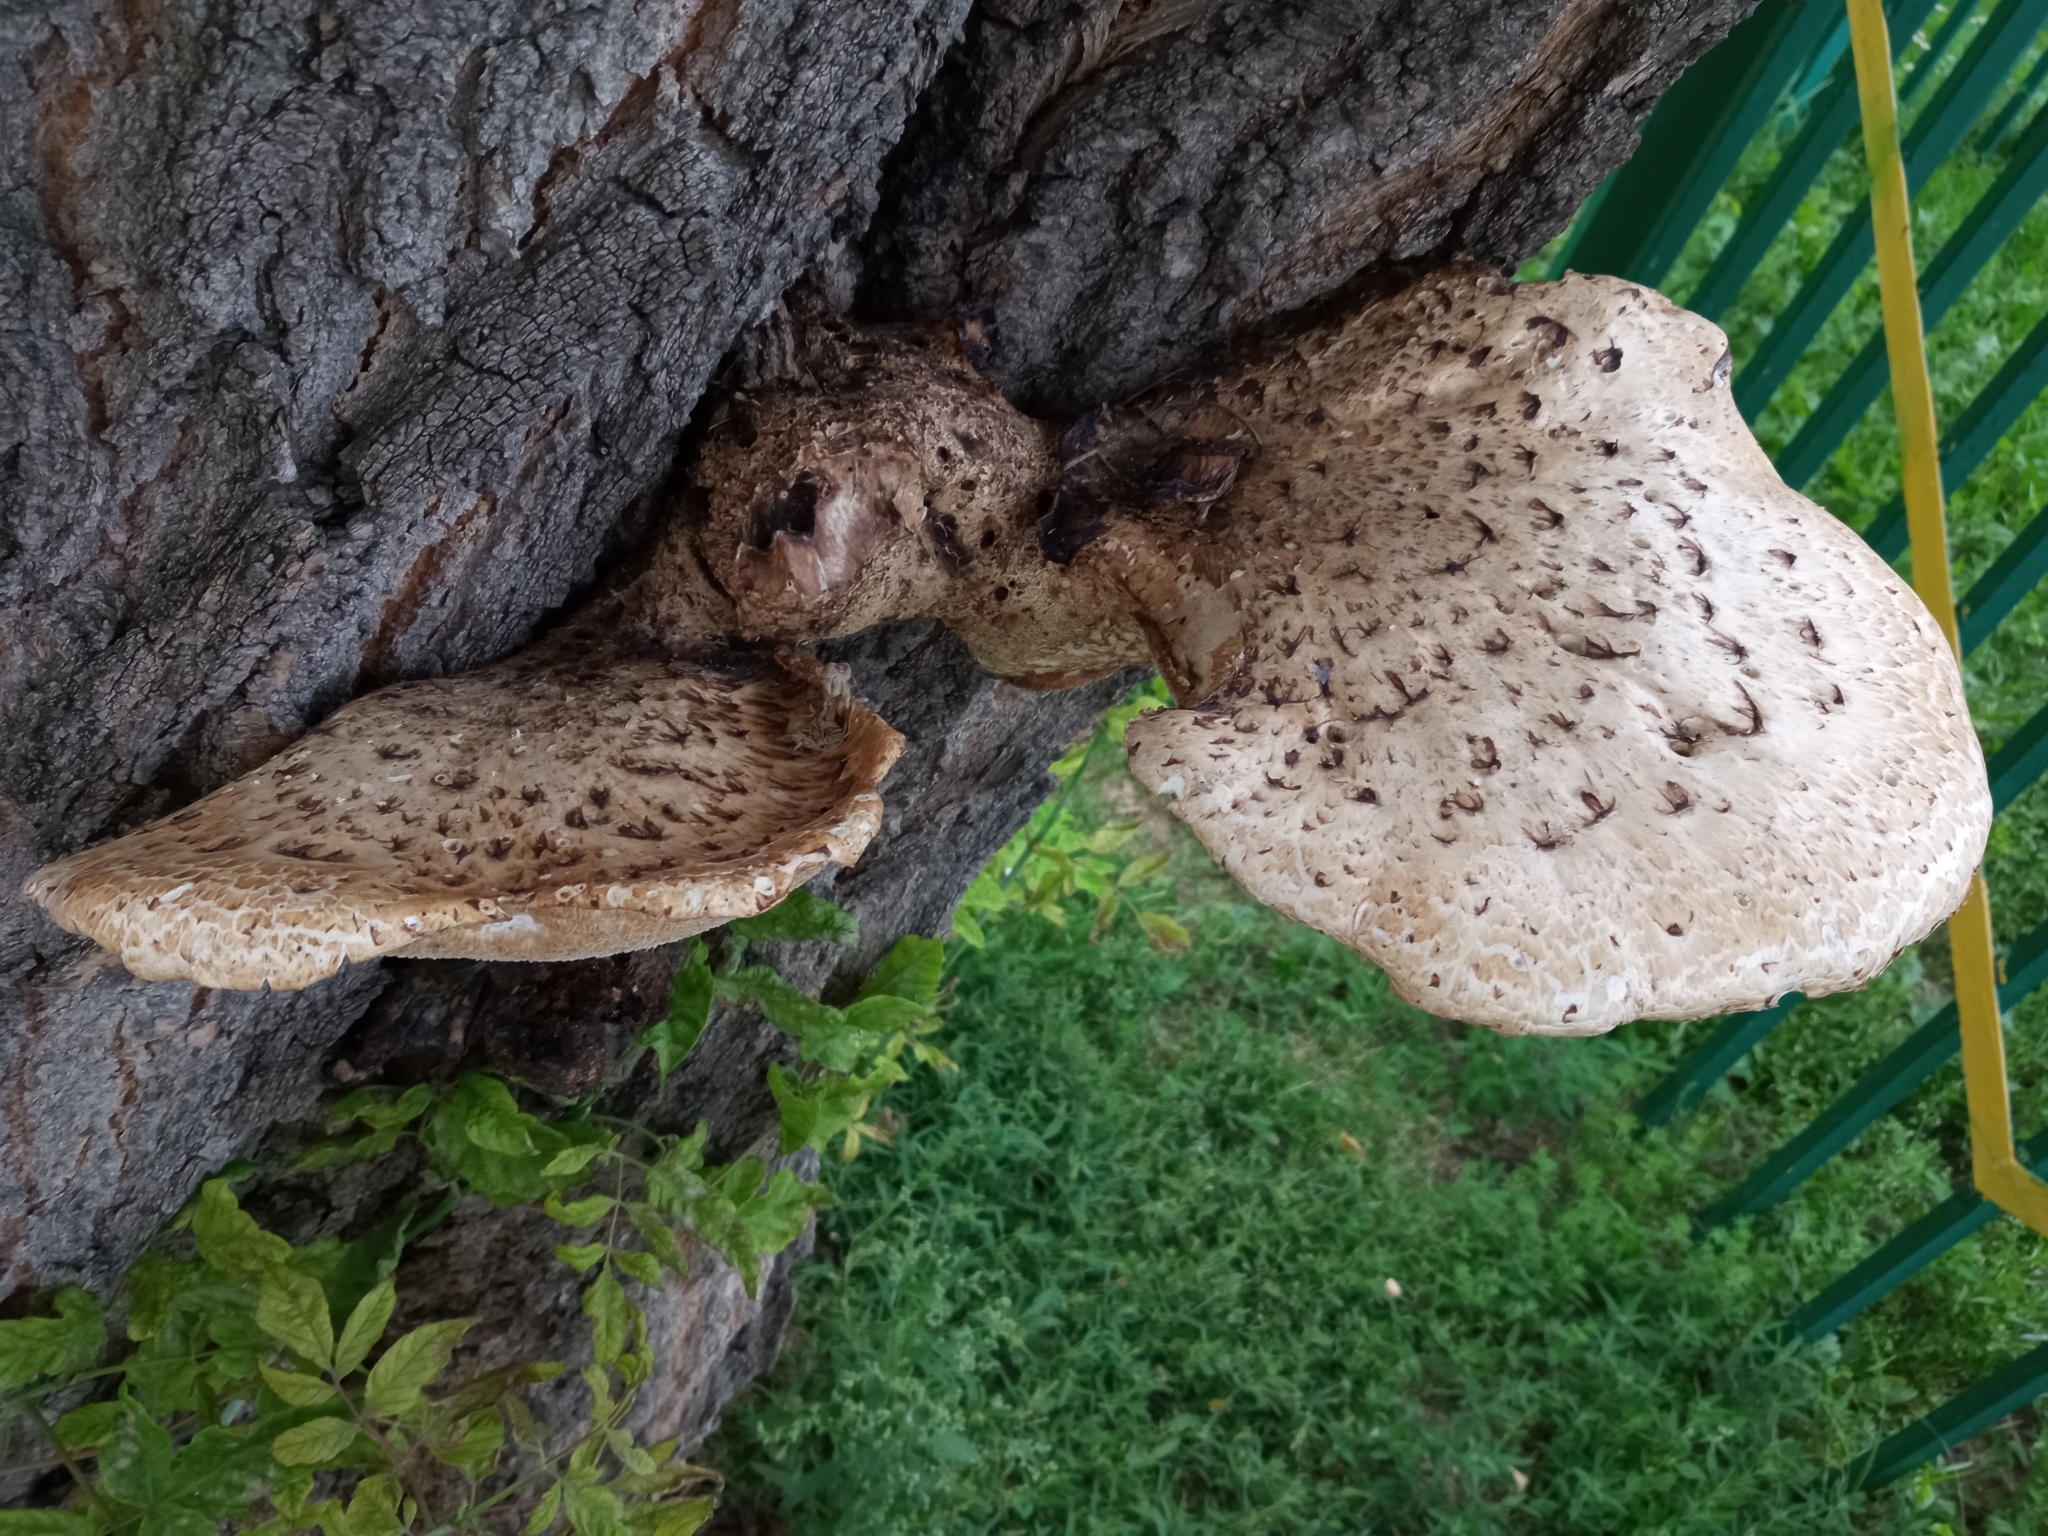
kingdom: Fungi
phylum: Basidiomycota
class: Agaricomycetes
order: Polyporales
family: Polyporaceae
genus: Cerioporus
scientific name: Cerioporus squamosus
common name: Dryad's saddle
